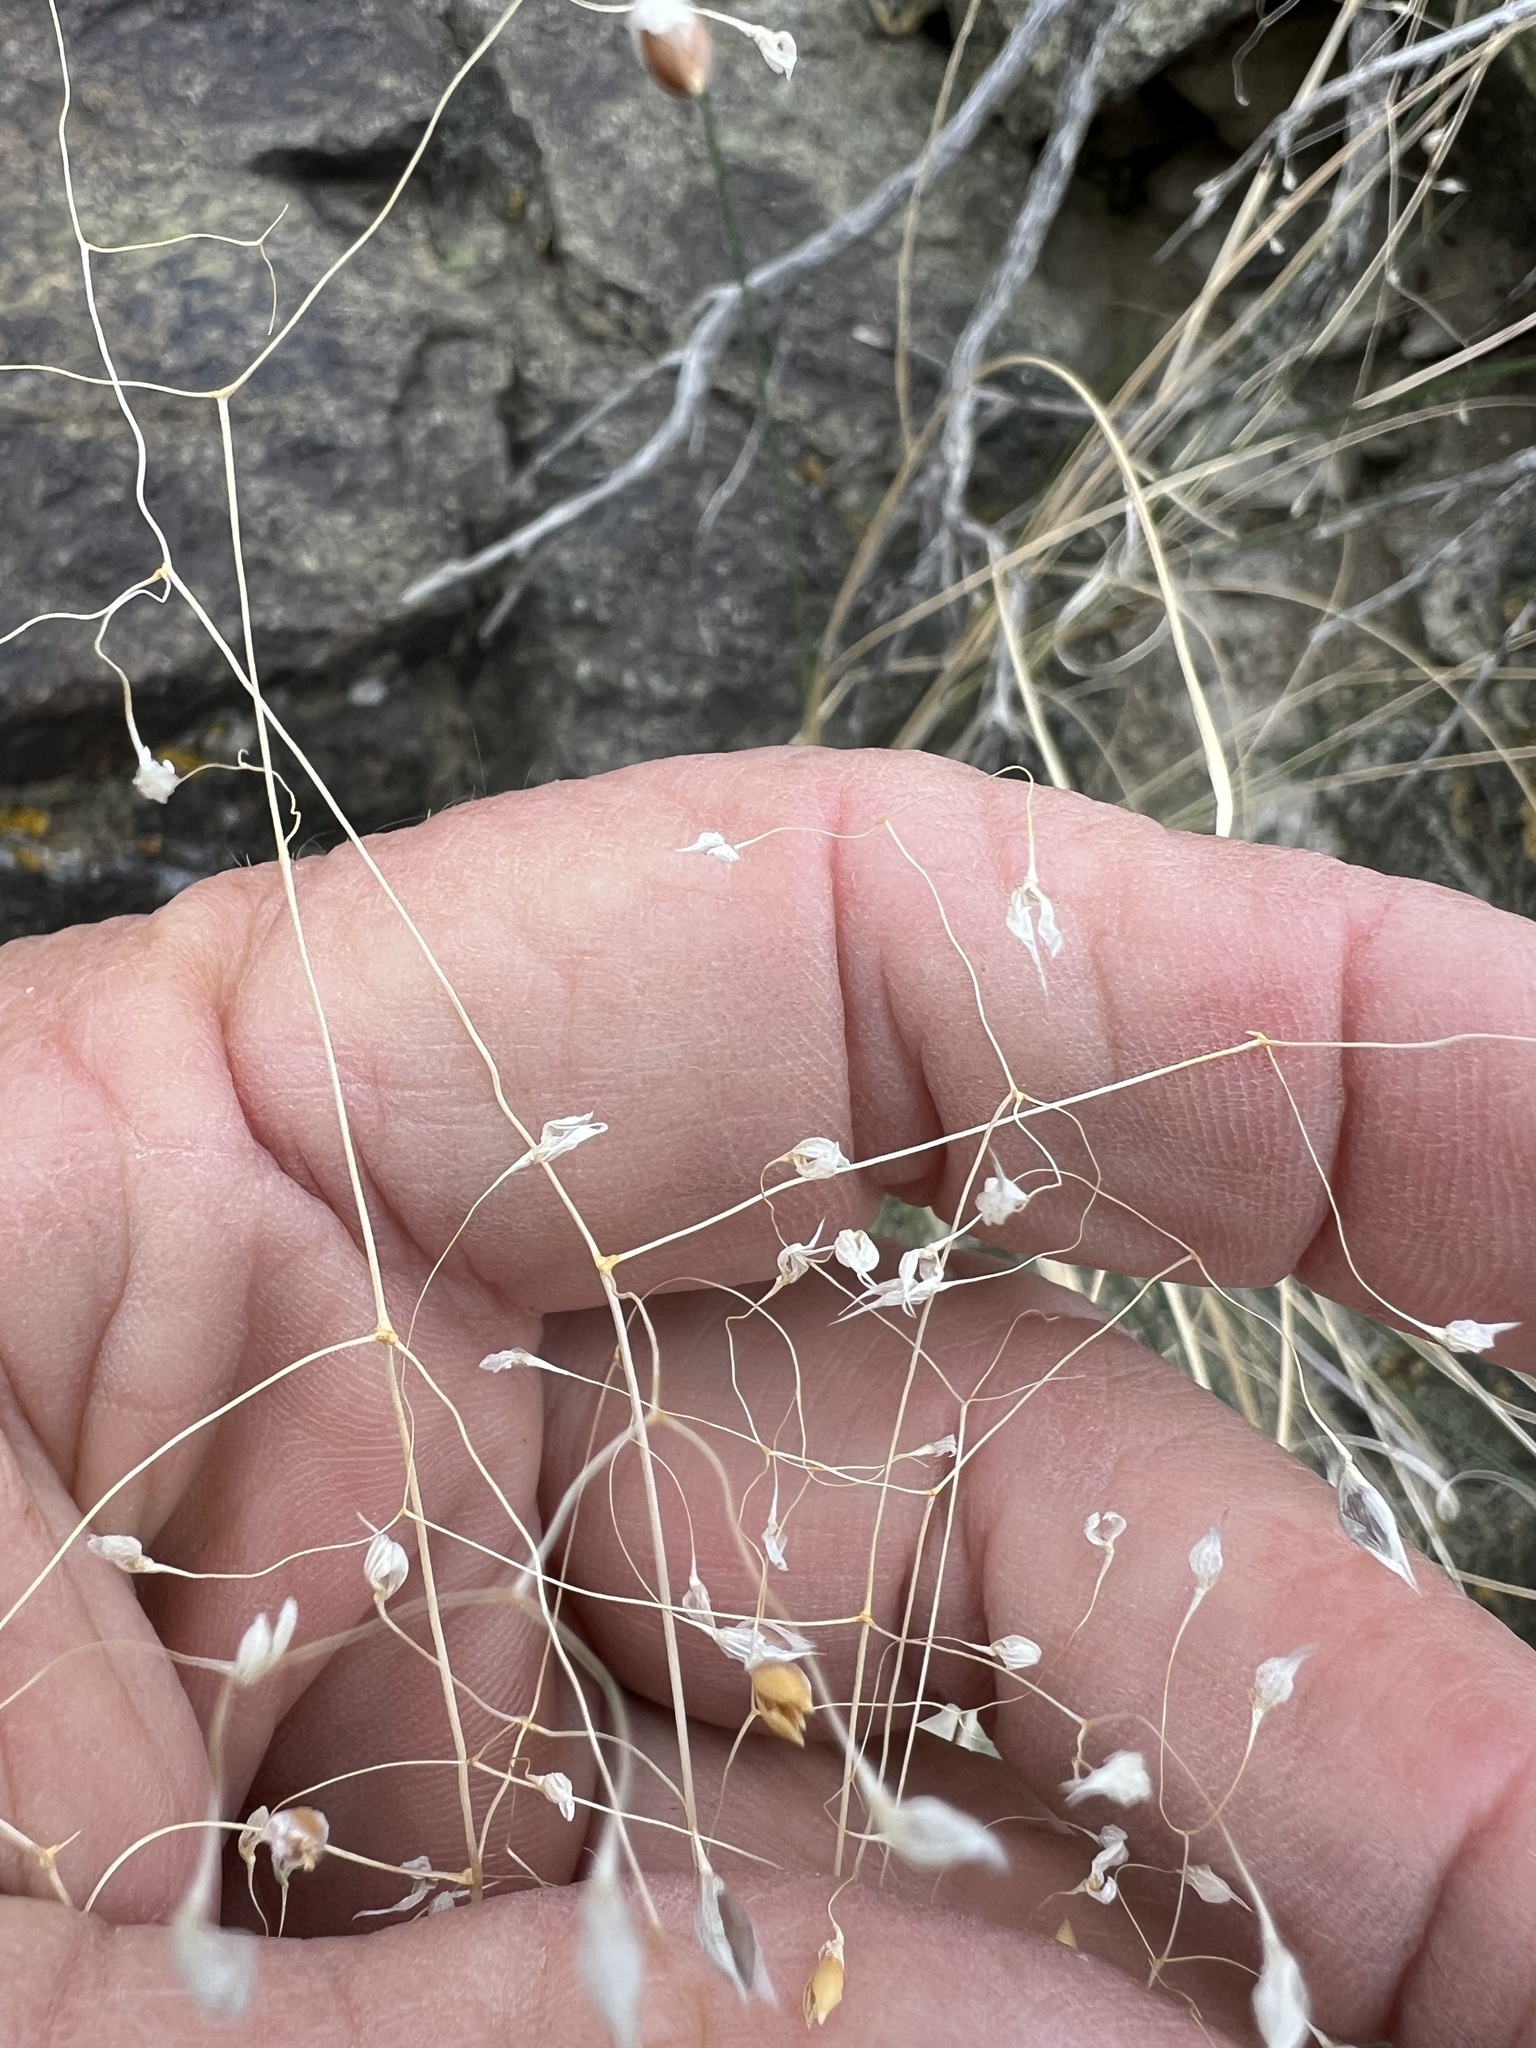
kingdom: Plantae
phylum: Tracheophyta
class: Liliopsida
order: Poales
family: Poaceae
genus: Eriocoma
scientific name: Eriocoma hymenoides
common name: Indian mountain ricegrass
